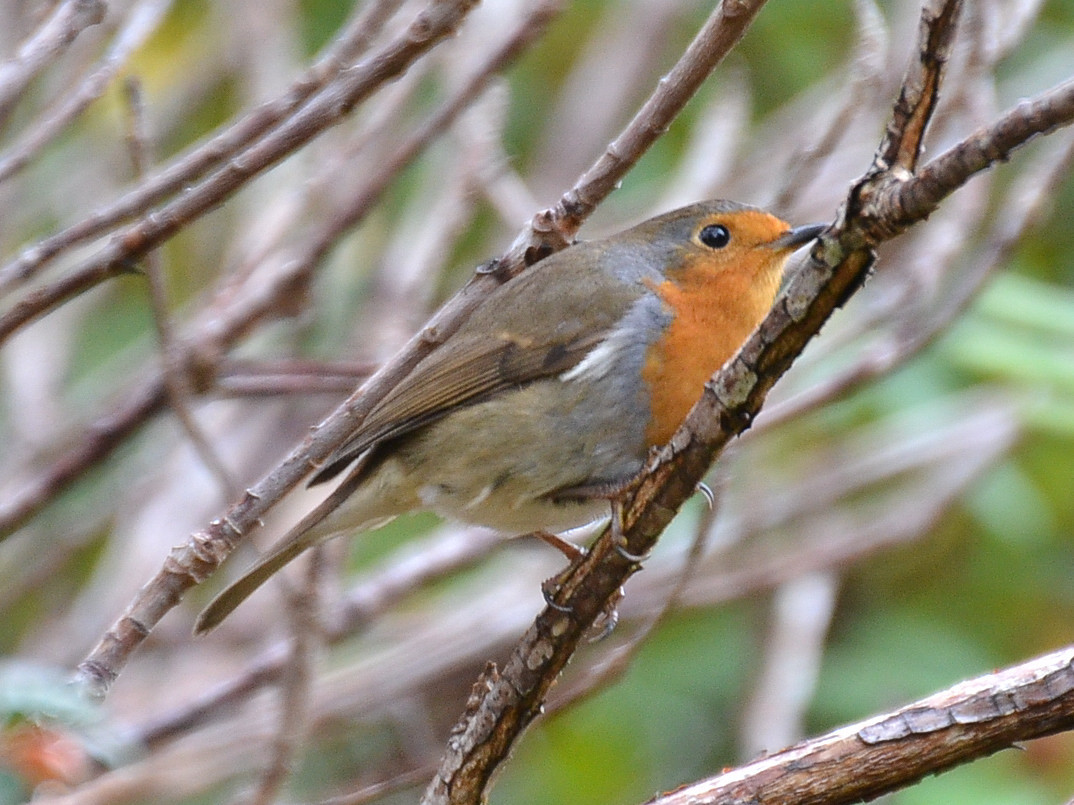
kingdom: Animalia
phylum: Chordata
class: Aves
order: Passeriformes
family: Muscicapidae
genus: Erithacus
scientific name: Erithacus rubecula
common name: European robin
